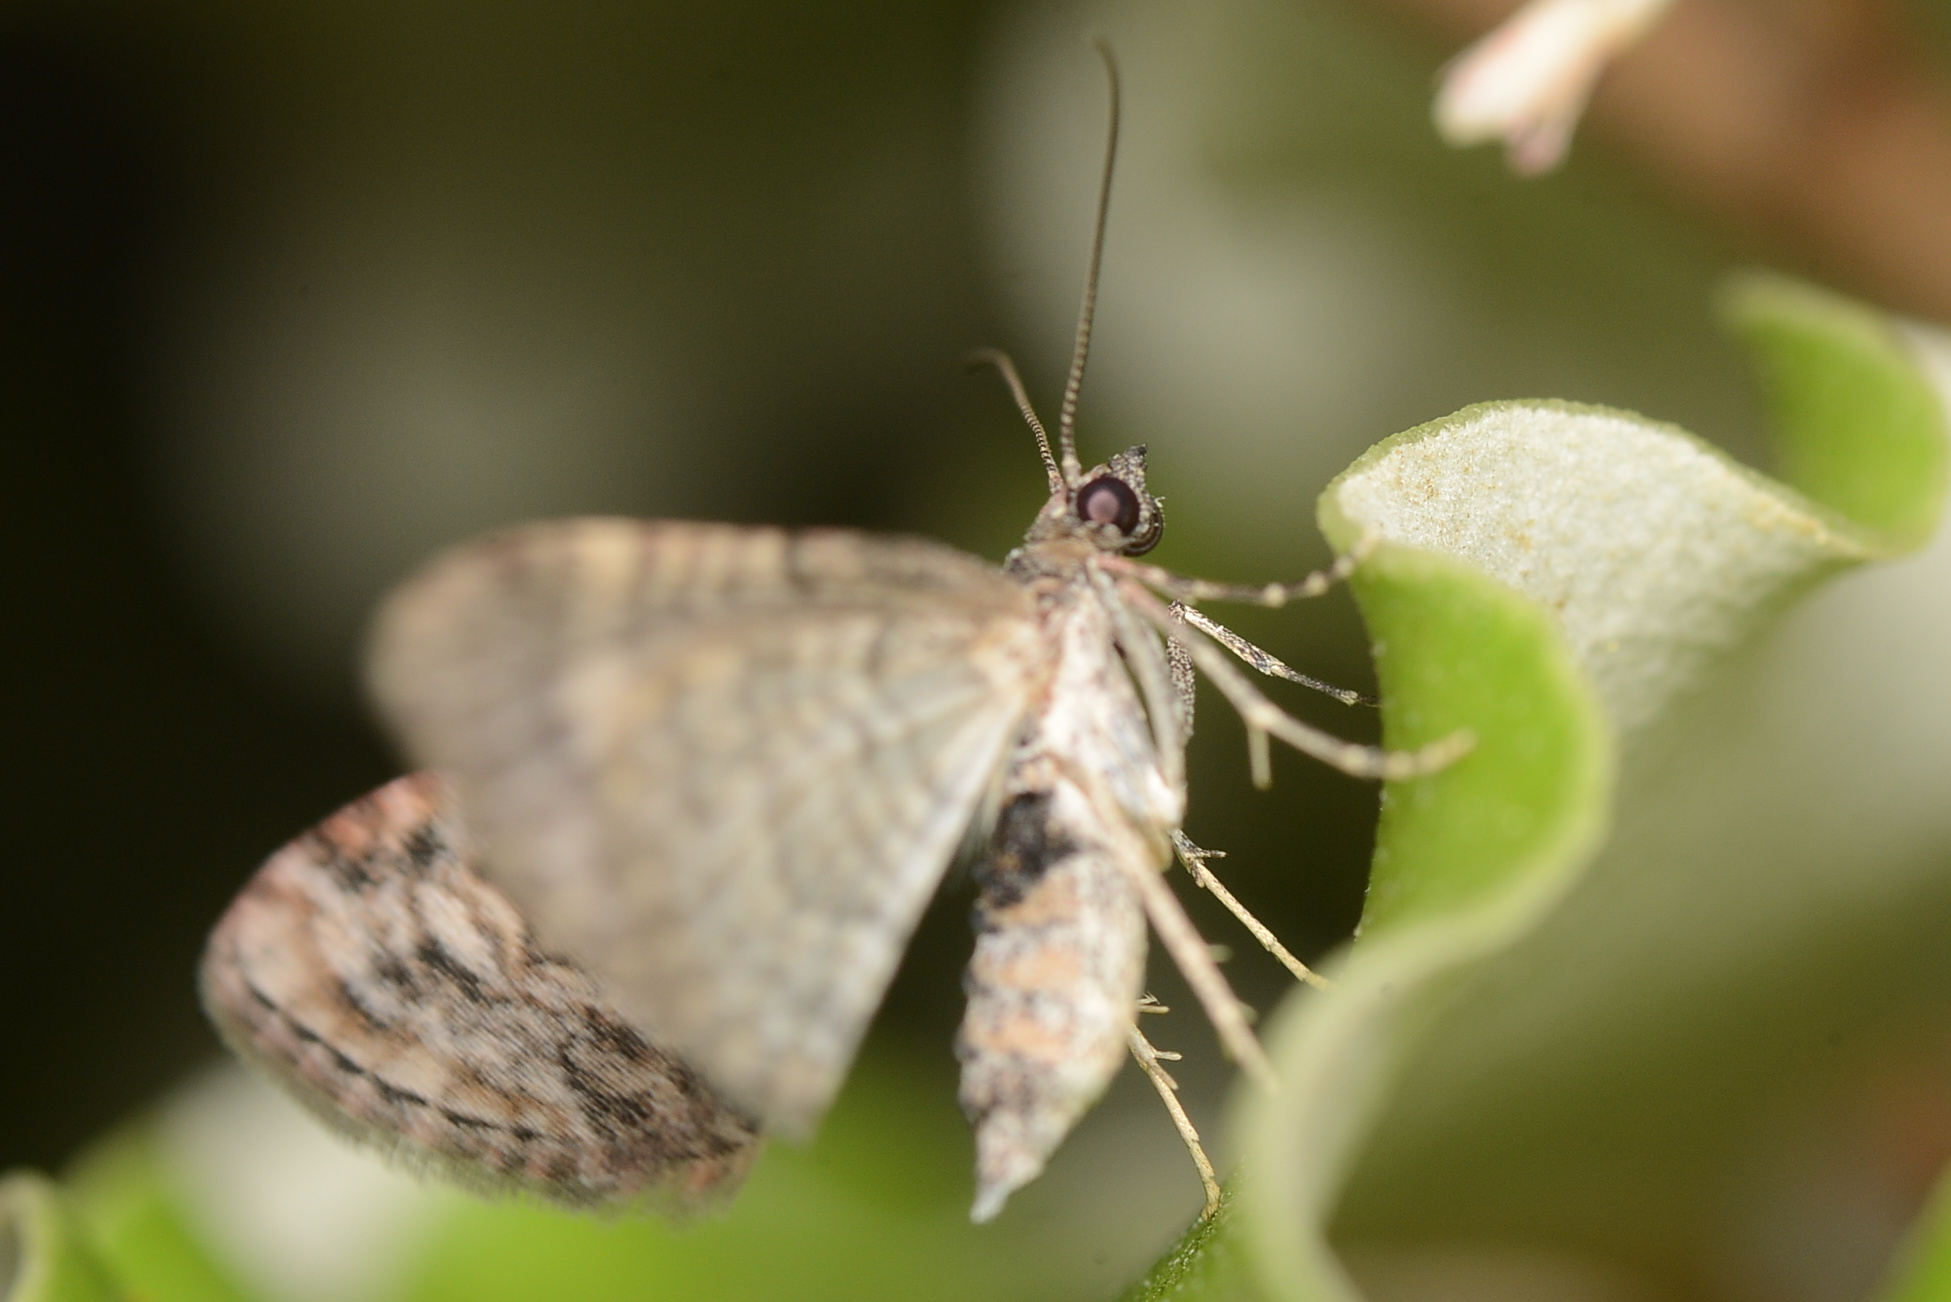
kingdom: Animalia
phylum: Arthropoda
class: Insecta
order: Lepidoptera
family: Geometridae
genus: Phrissogonus
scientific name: Phrissogonus laticostata
